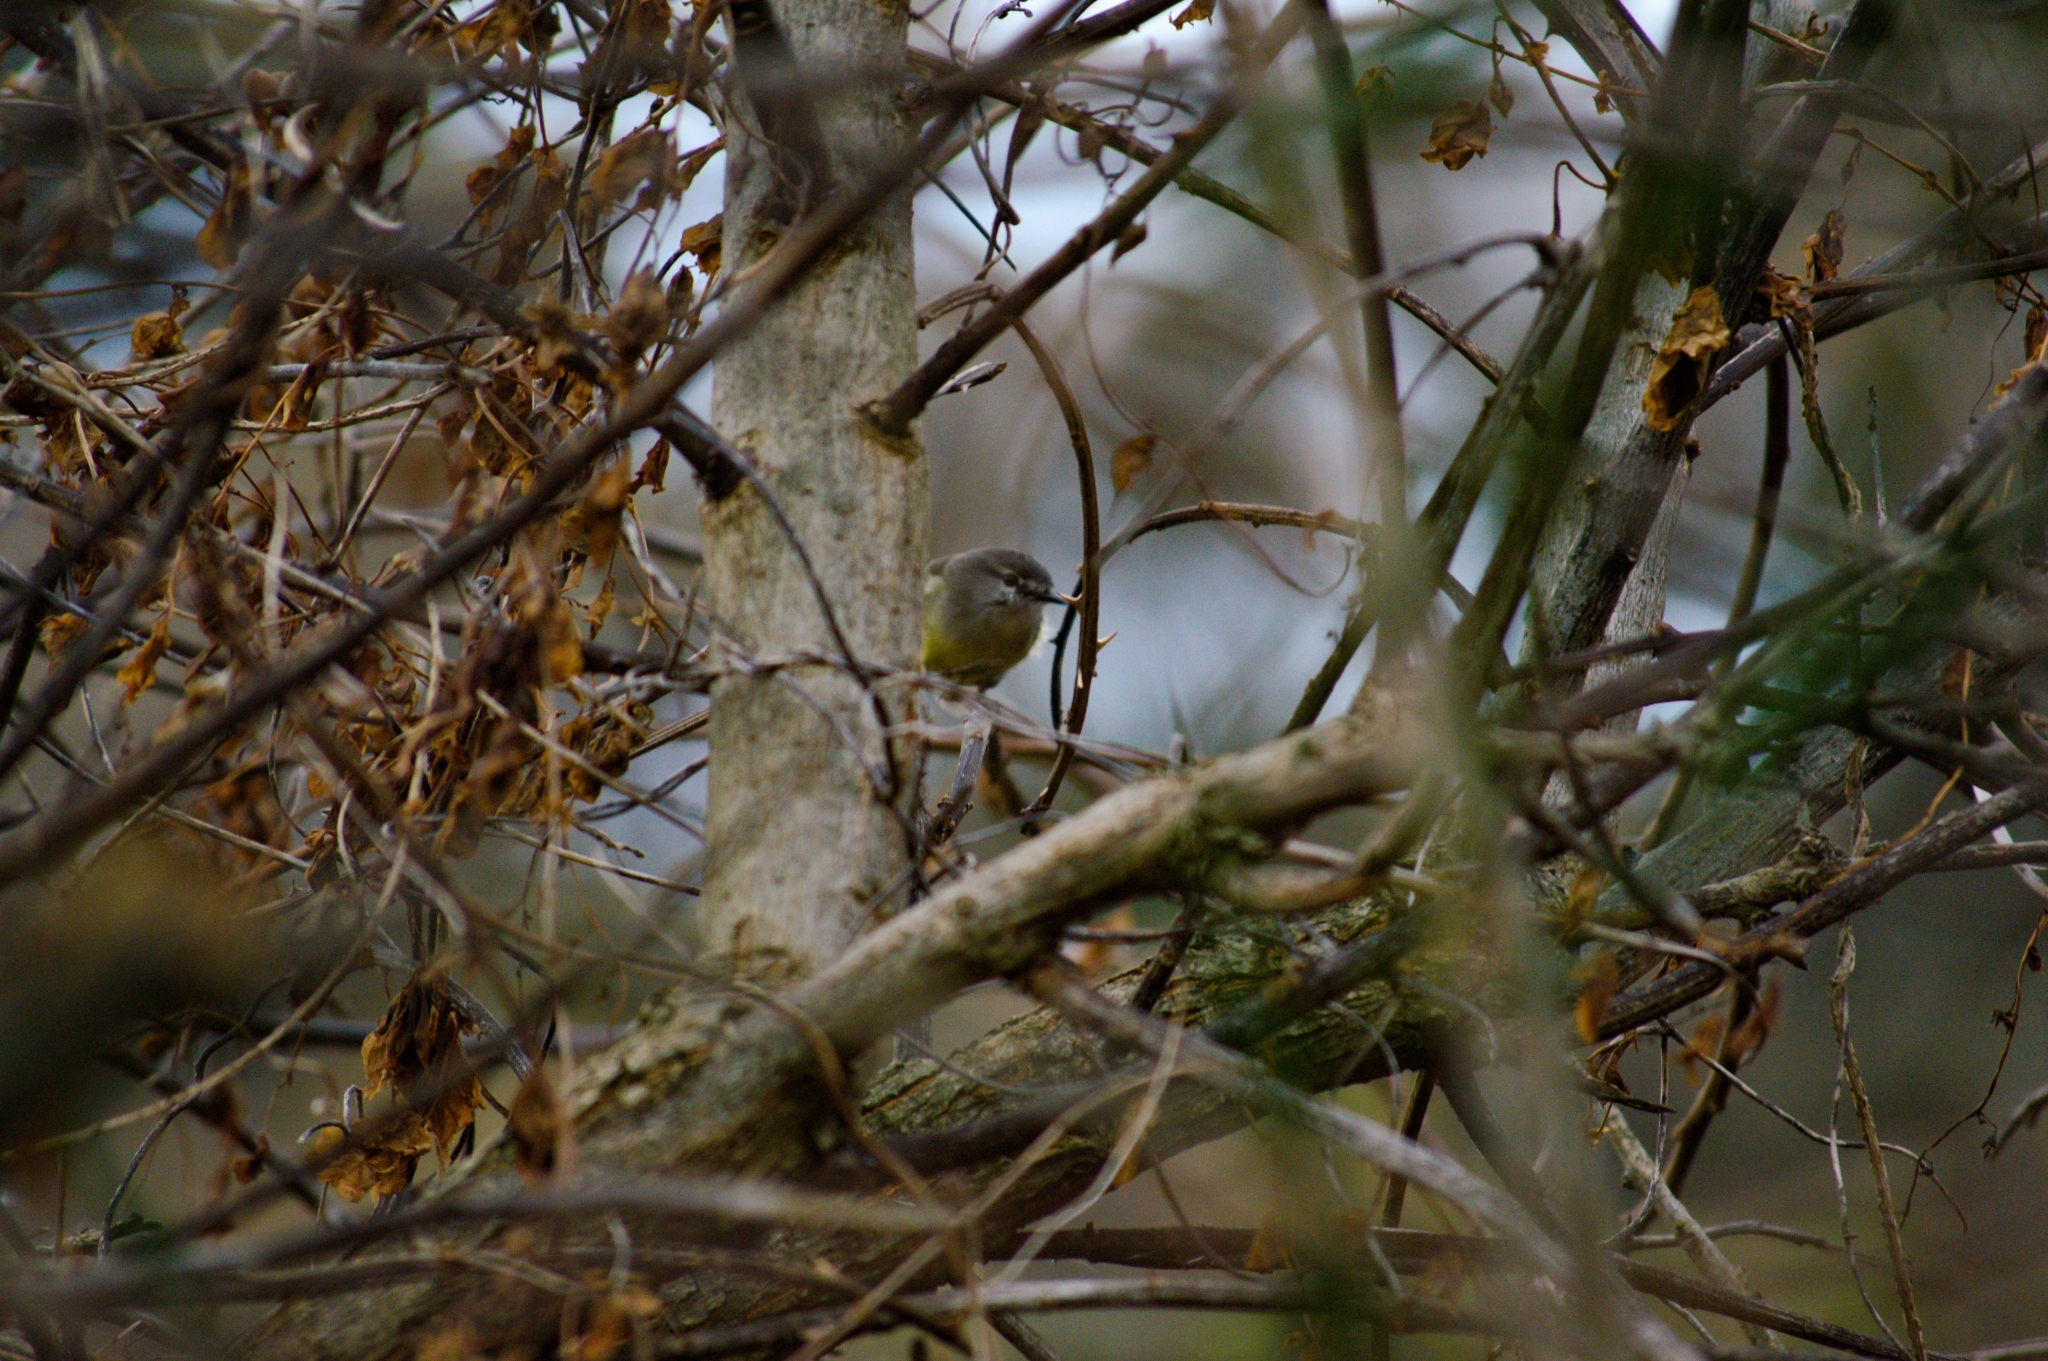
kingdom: Animalia
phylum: Chordata
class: Aves
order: Passeriformes
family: Tyrannidae
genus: Serpophaga
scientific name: Serpophaga subcristata
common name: White-crested tyrannulet
